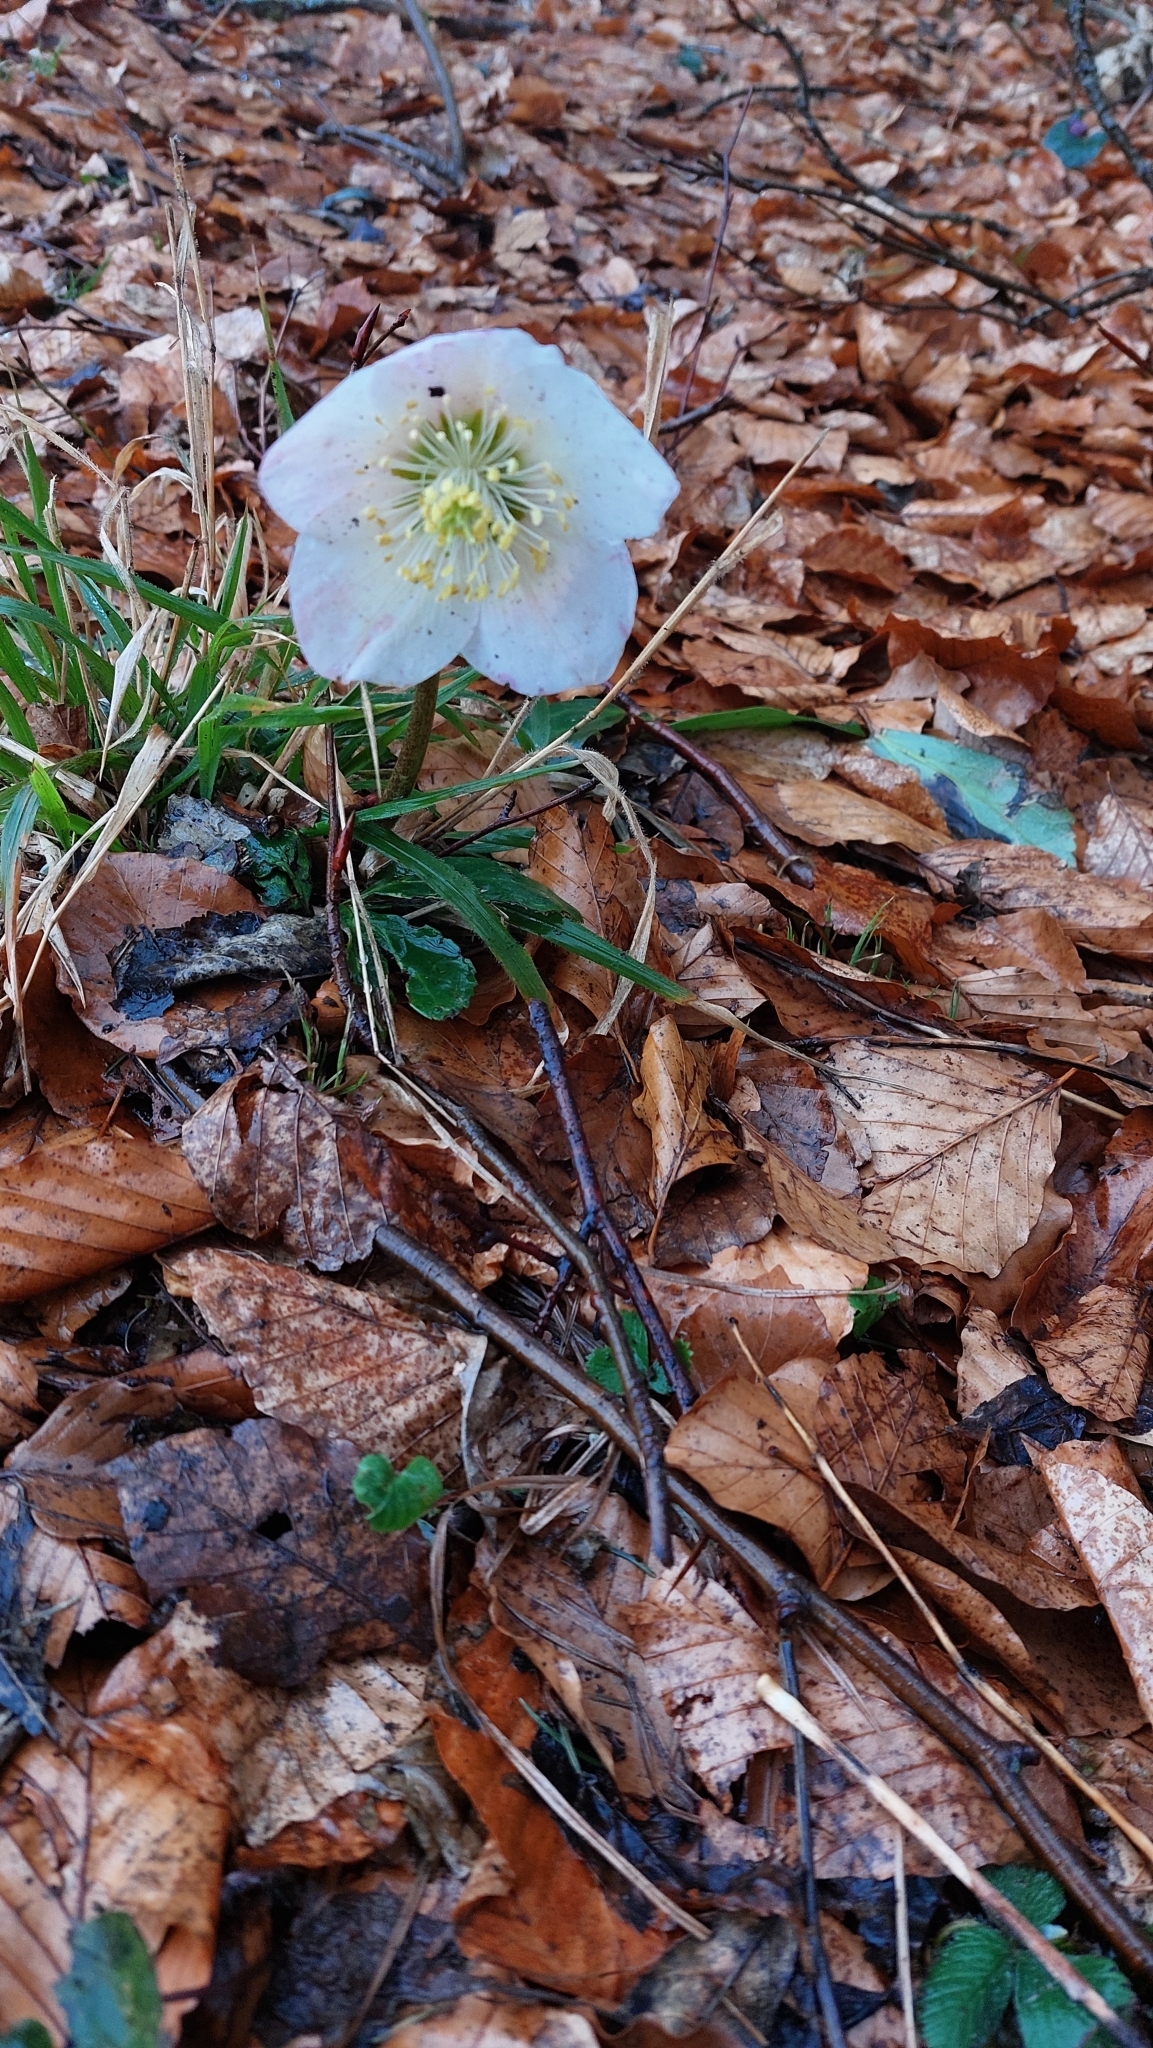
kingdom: Plantae
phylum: Tracheophyta
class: Magnoliopsida
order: Ranunculales
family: Ranunculaceae
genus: Helleborus
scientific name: Helleborus niger
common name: Black hellebore
